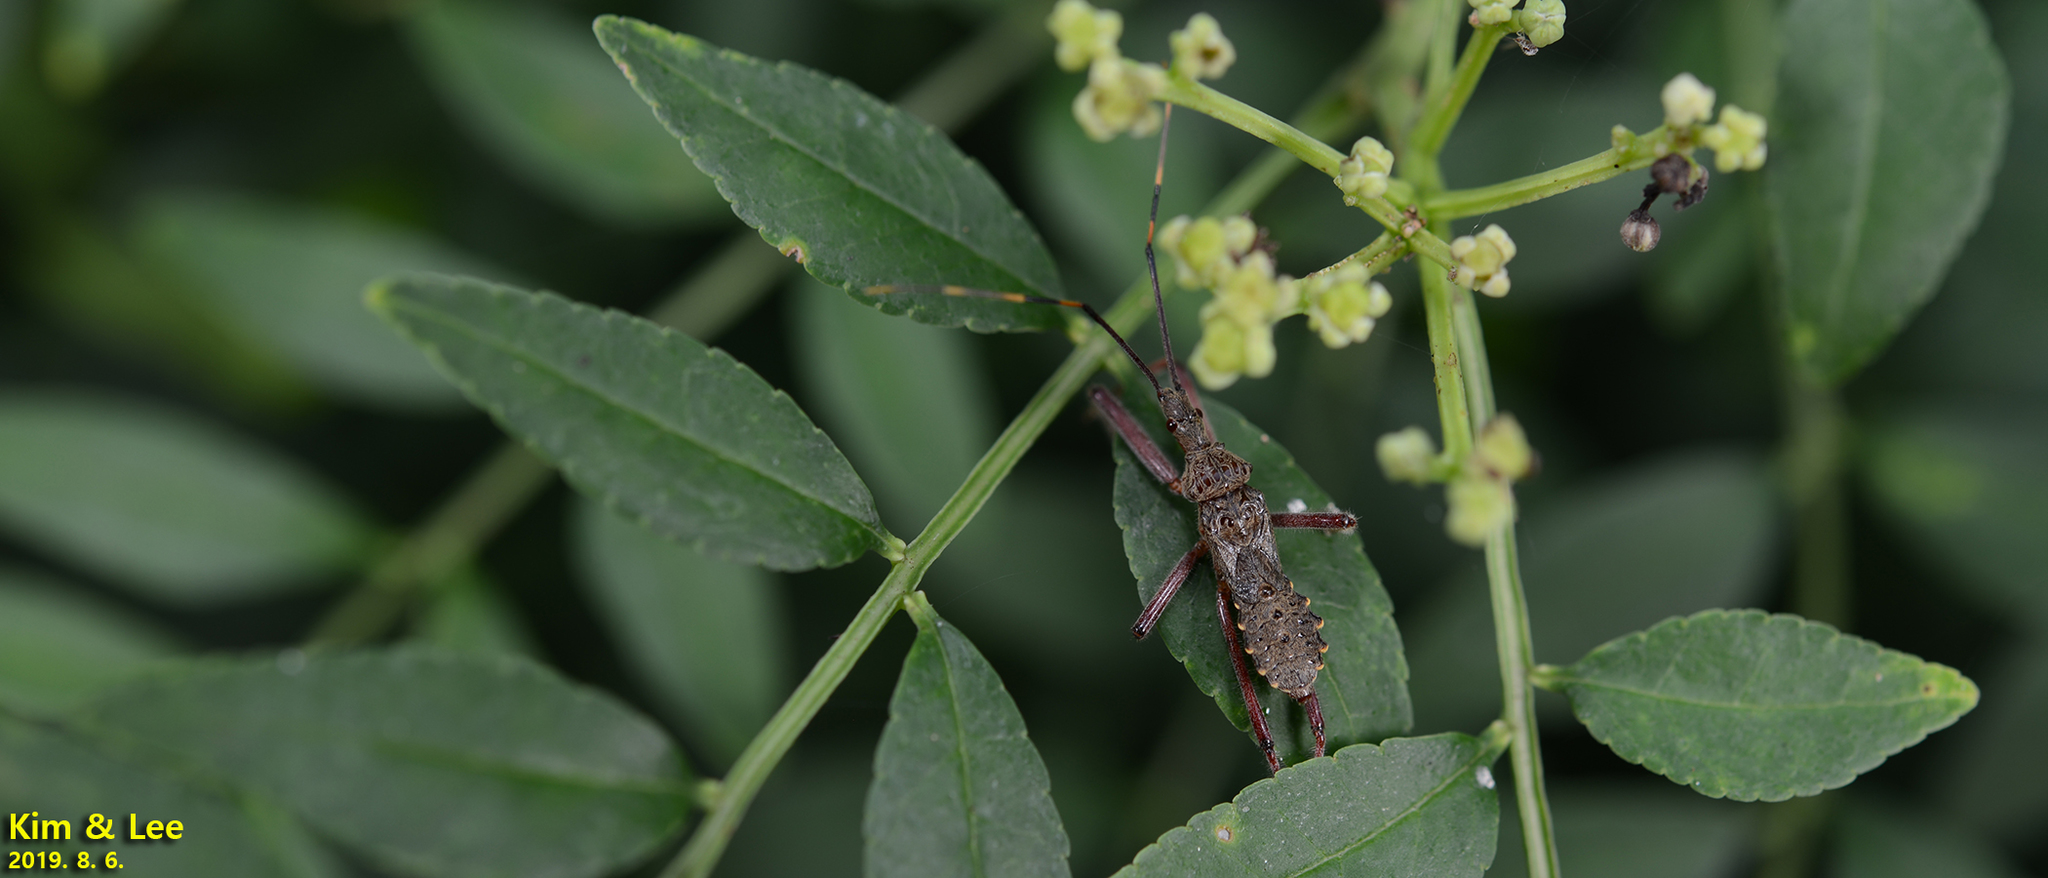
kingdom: Animalia
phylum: Arthropoda
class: Insecta
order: Hemiptera
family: Reduviidae
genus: Isyndus
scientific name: Isyndus obscurus
